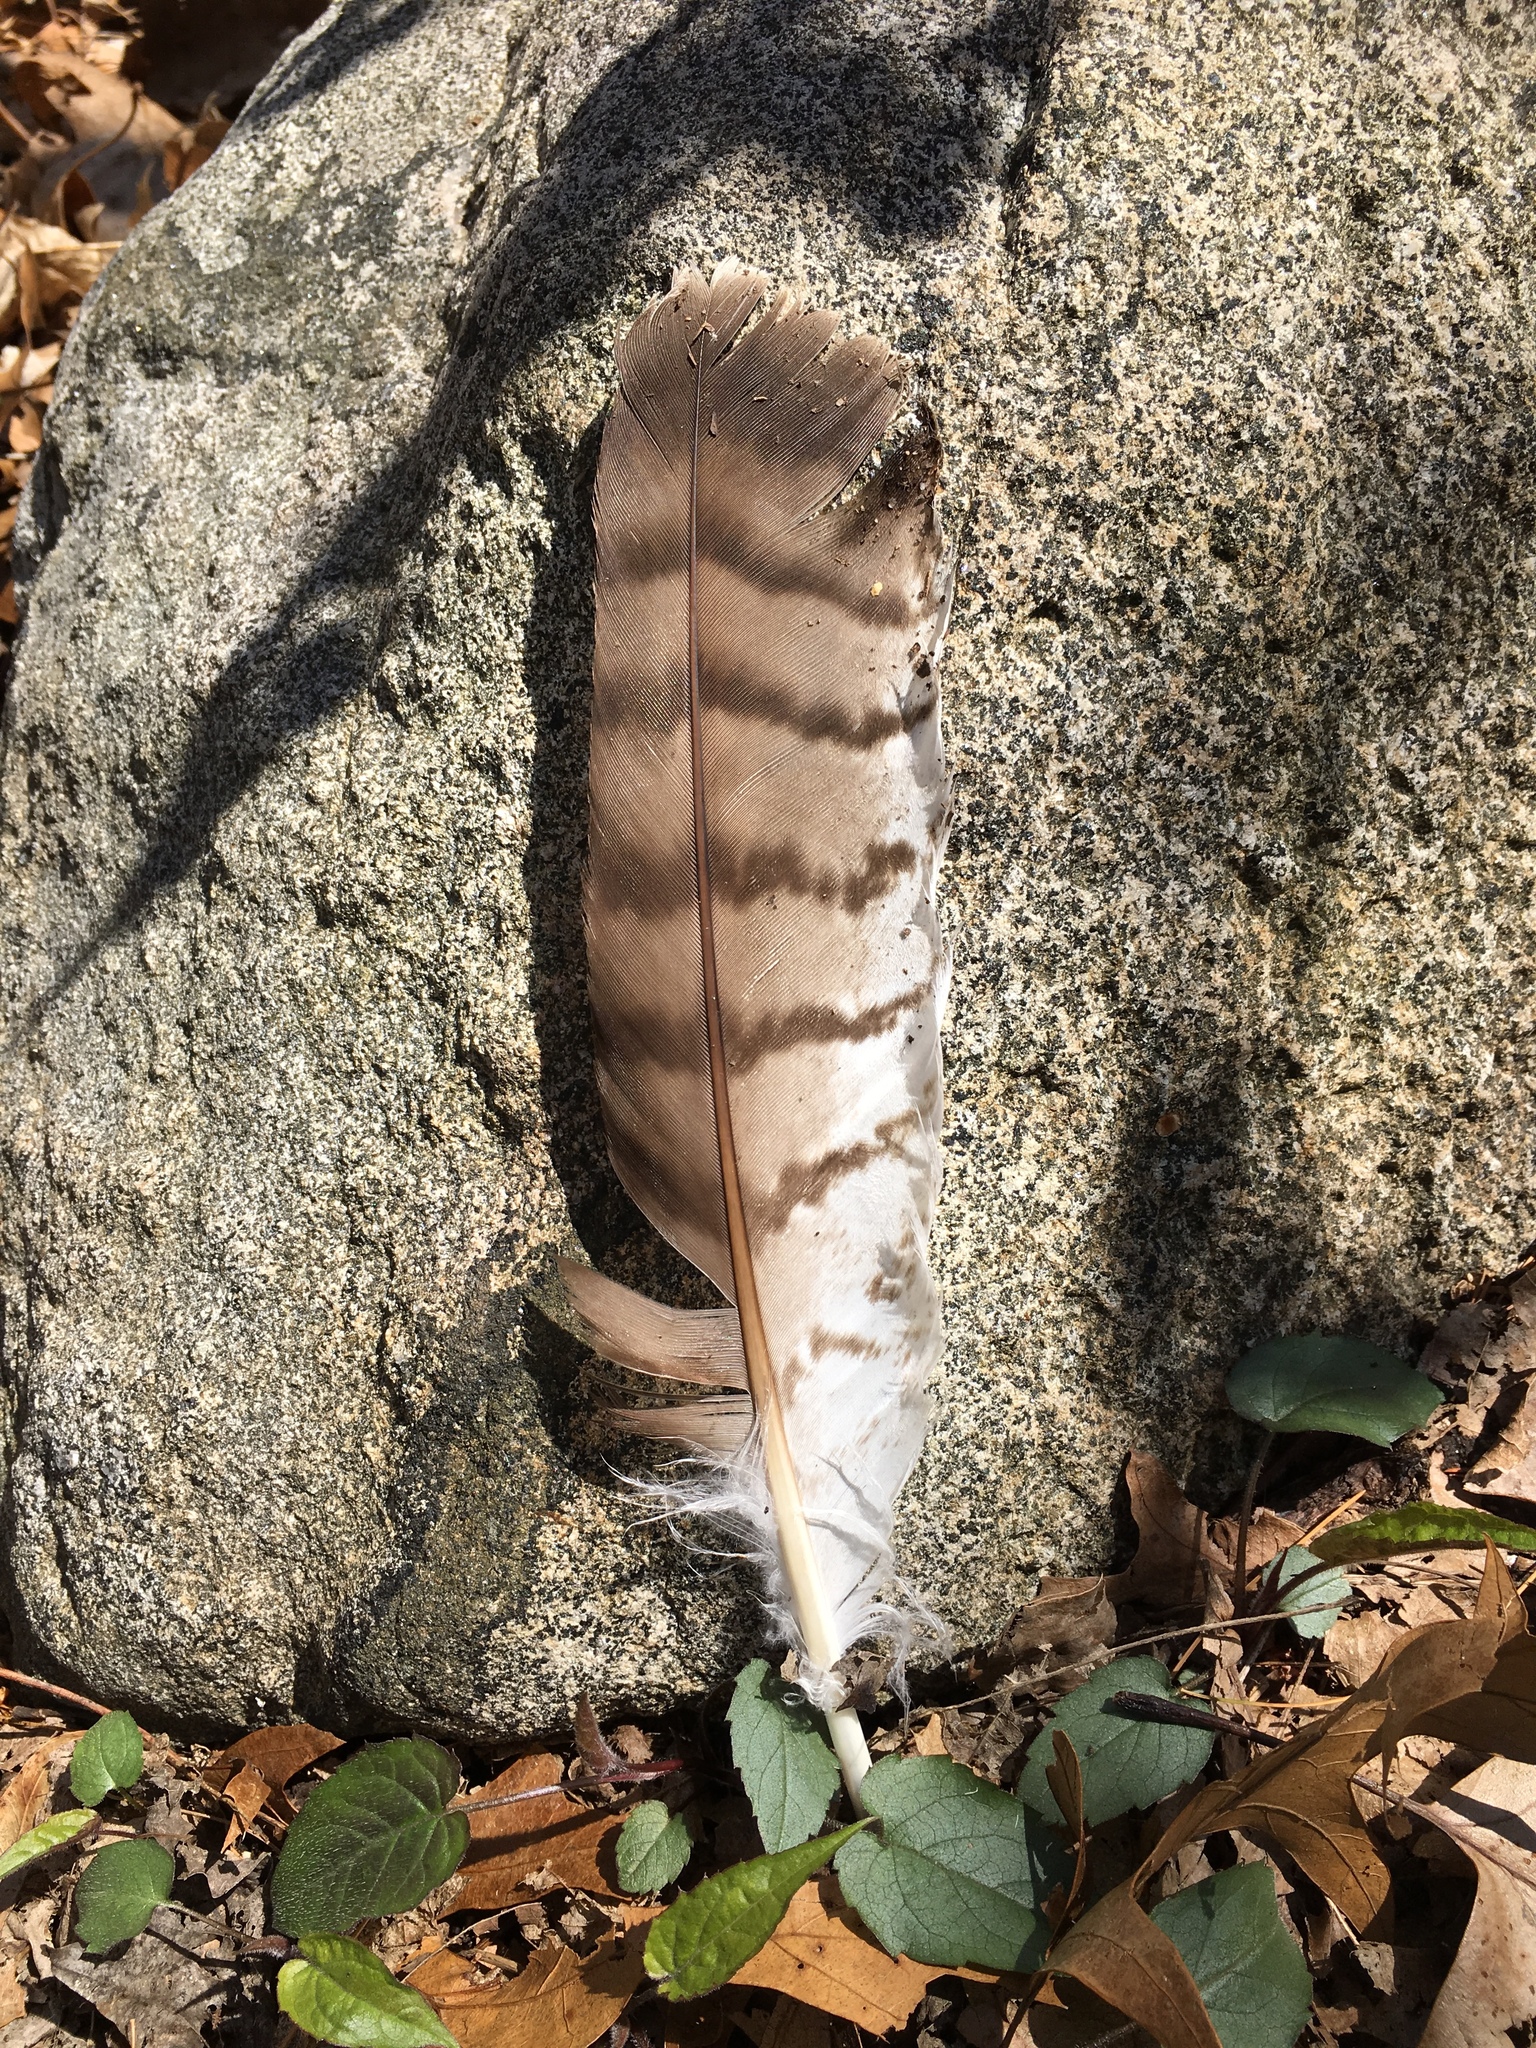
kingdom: Animalia
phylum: Chordata
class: Aves
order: Accipitriformes
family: Accipitridae
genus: Buteo
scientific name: Buteo jamaicensis
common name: Red-tailed hawk
